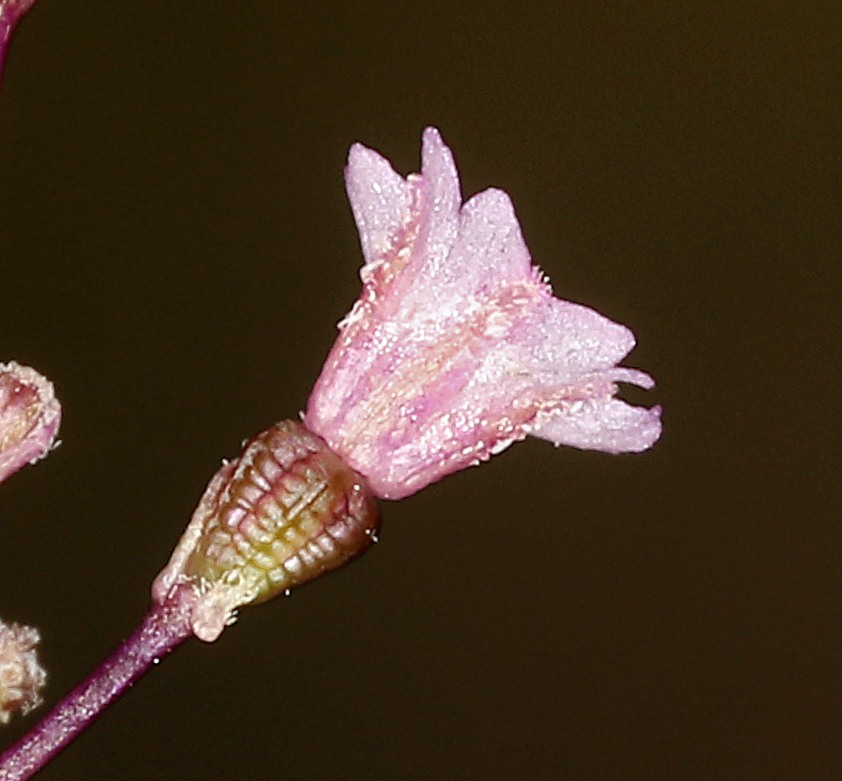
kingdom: Plantae
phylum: Tracheophyta
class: Magnoliopsida
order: Caryophyllales
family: Nyctaginaceae
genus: Boerhavia
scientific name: Boerhavia coulteri
